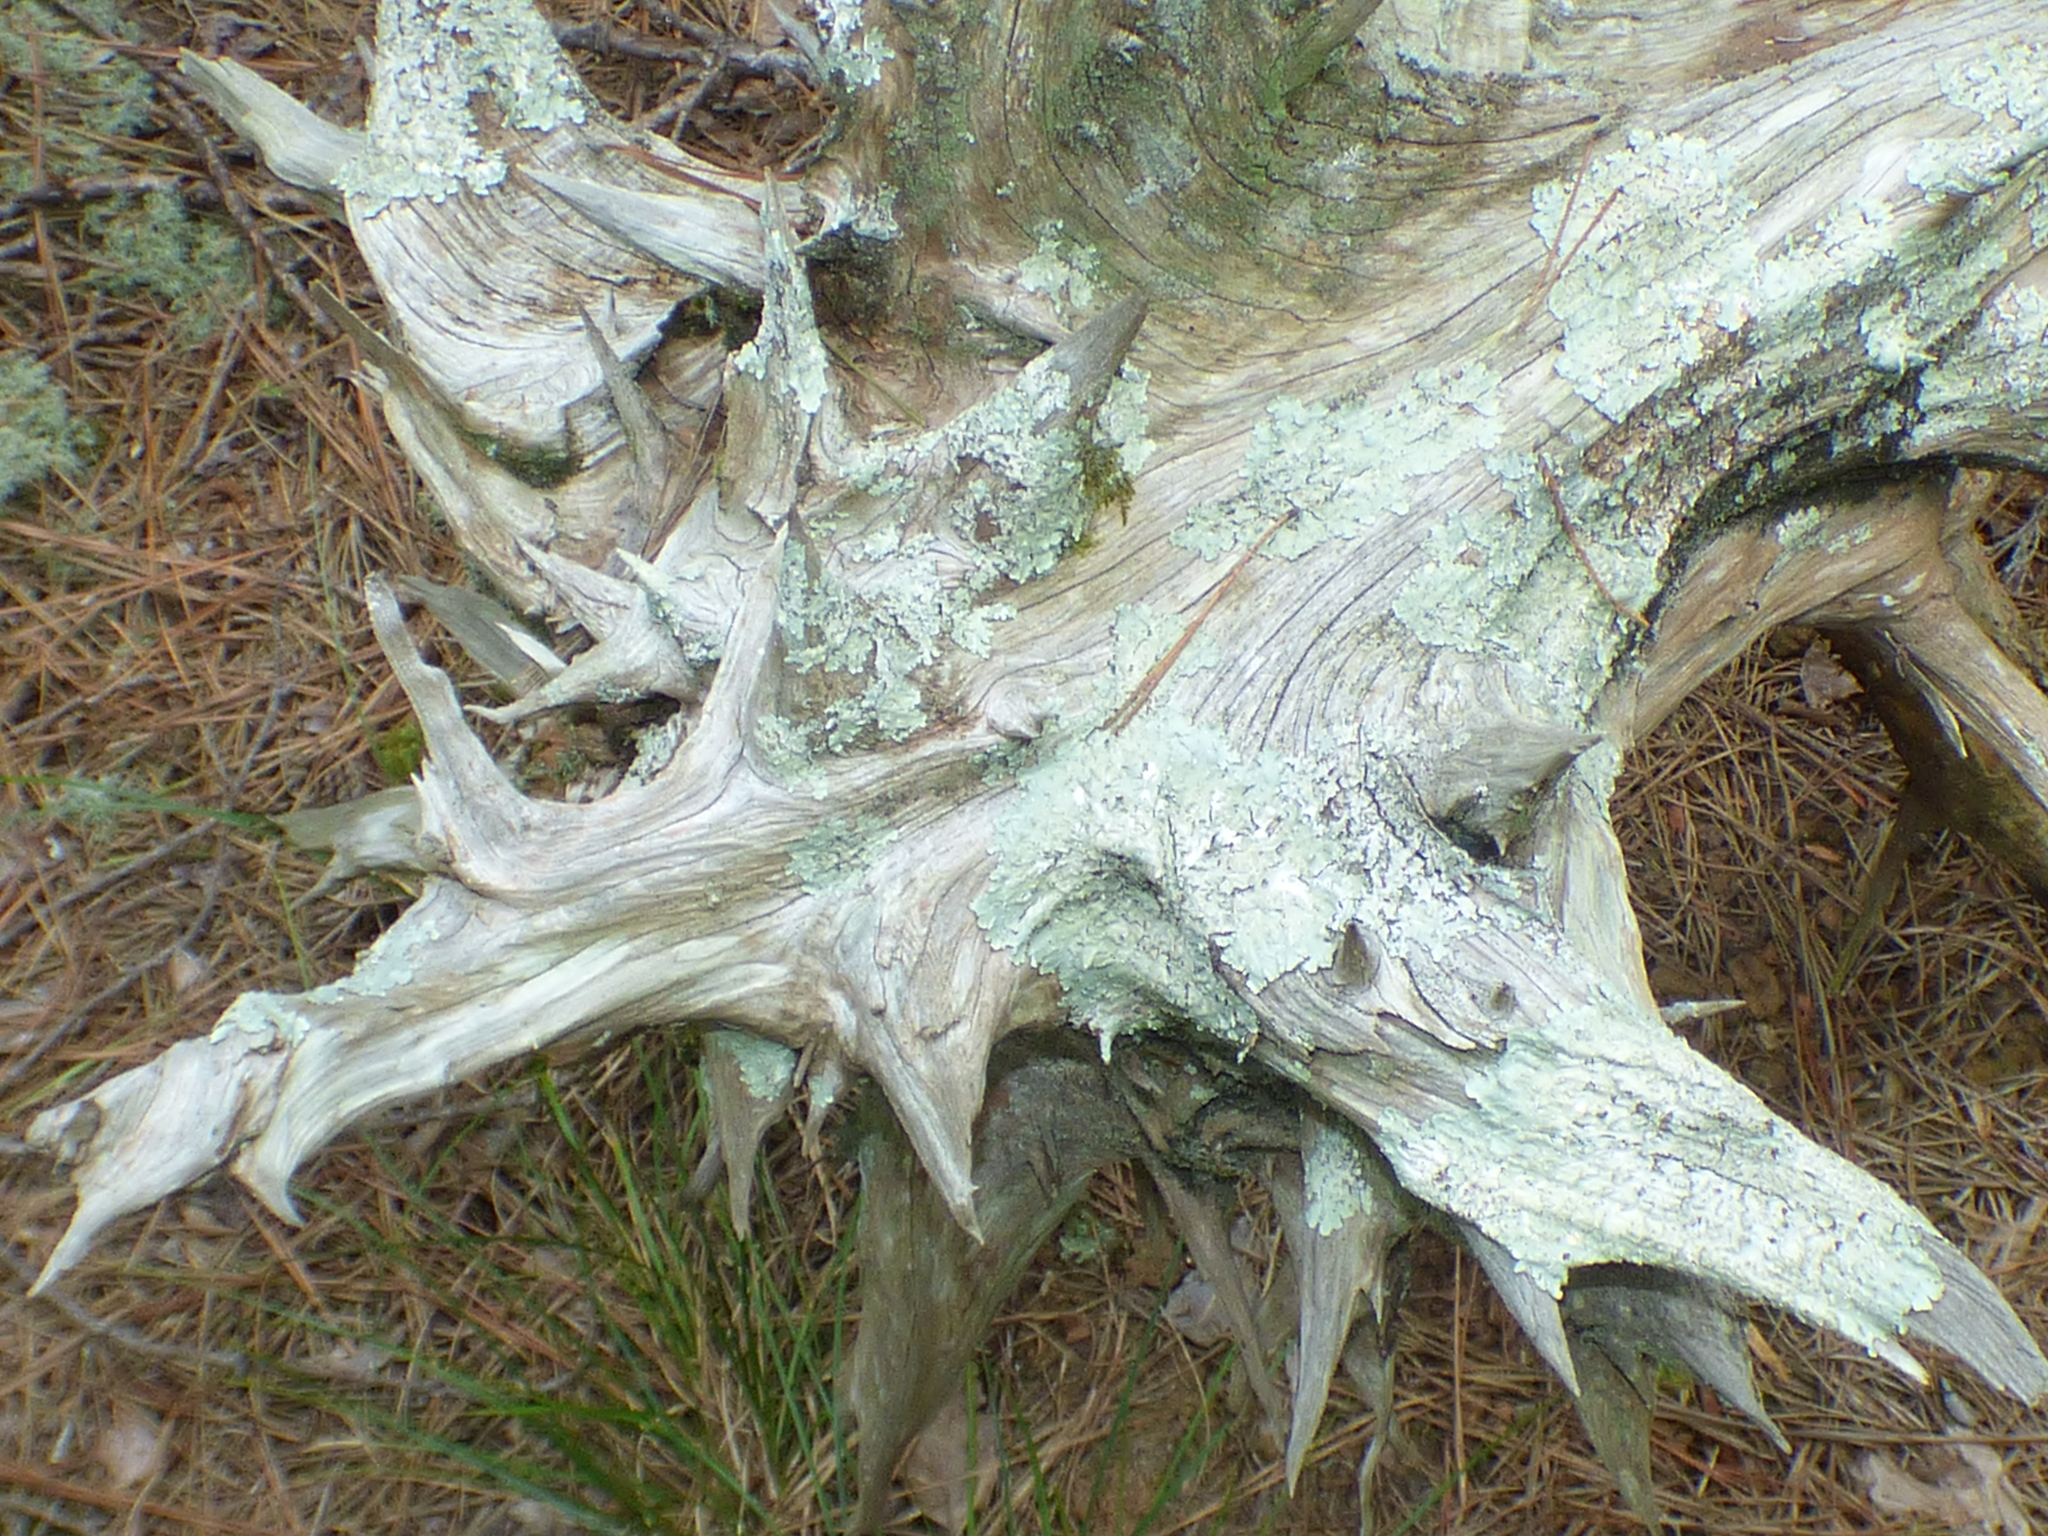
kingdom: Plantae
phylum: Tracheophyta
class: Pinopsida
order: Pinales
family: Cupressaceae
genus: Juniperus
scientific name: Juniperus virginiana
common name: Red juniper
